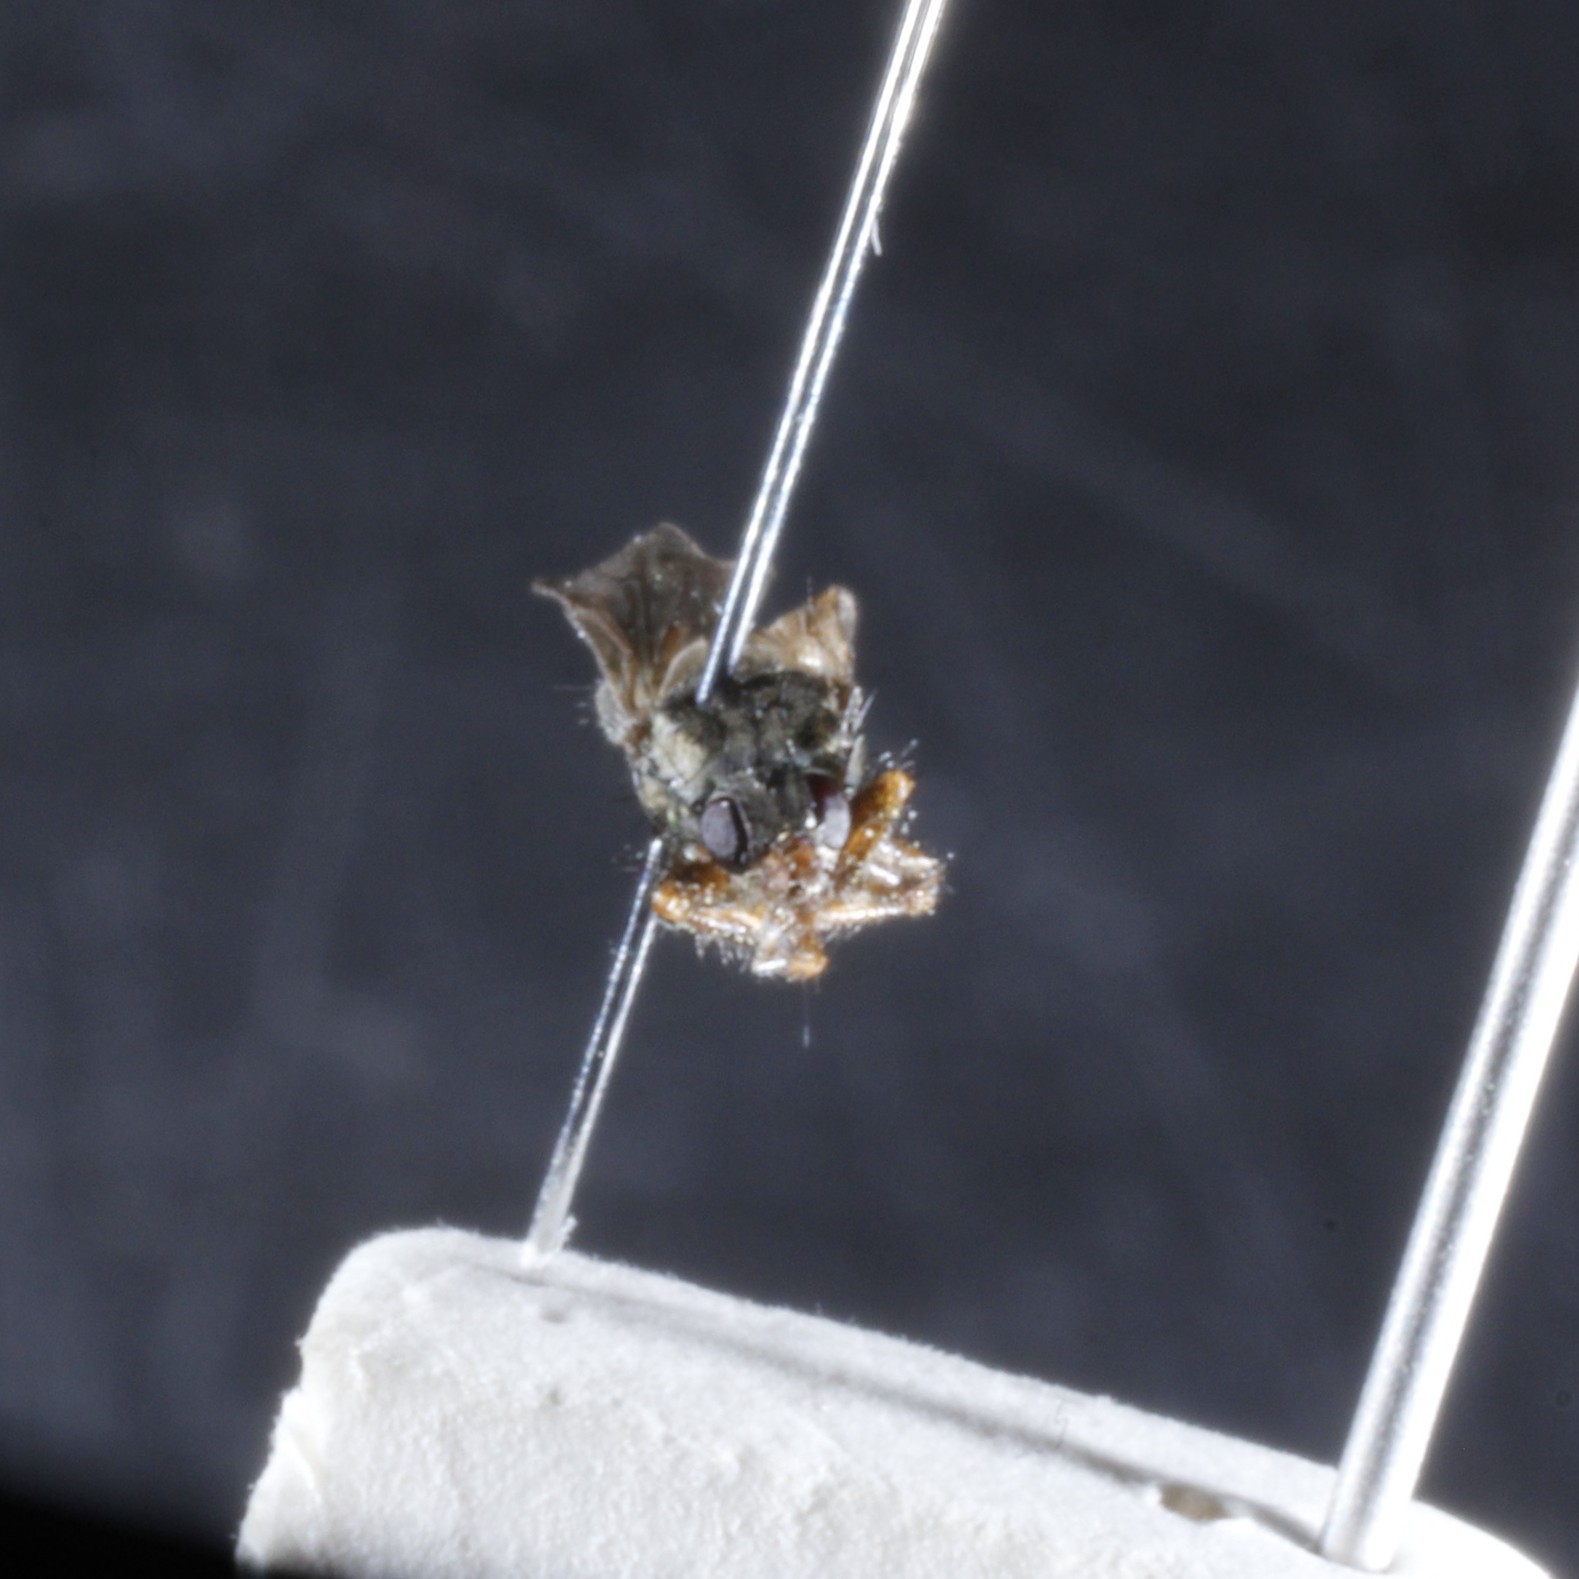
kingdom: Animalia
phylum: Arthropoda
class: Insecta
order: Diptera
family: Coelopidae
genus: Coelopa
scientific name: Coelopa frigida
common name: Kelp fly
